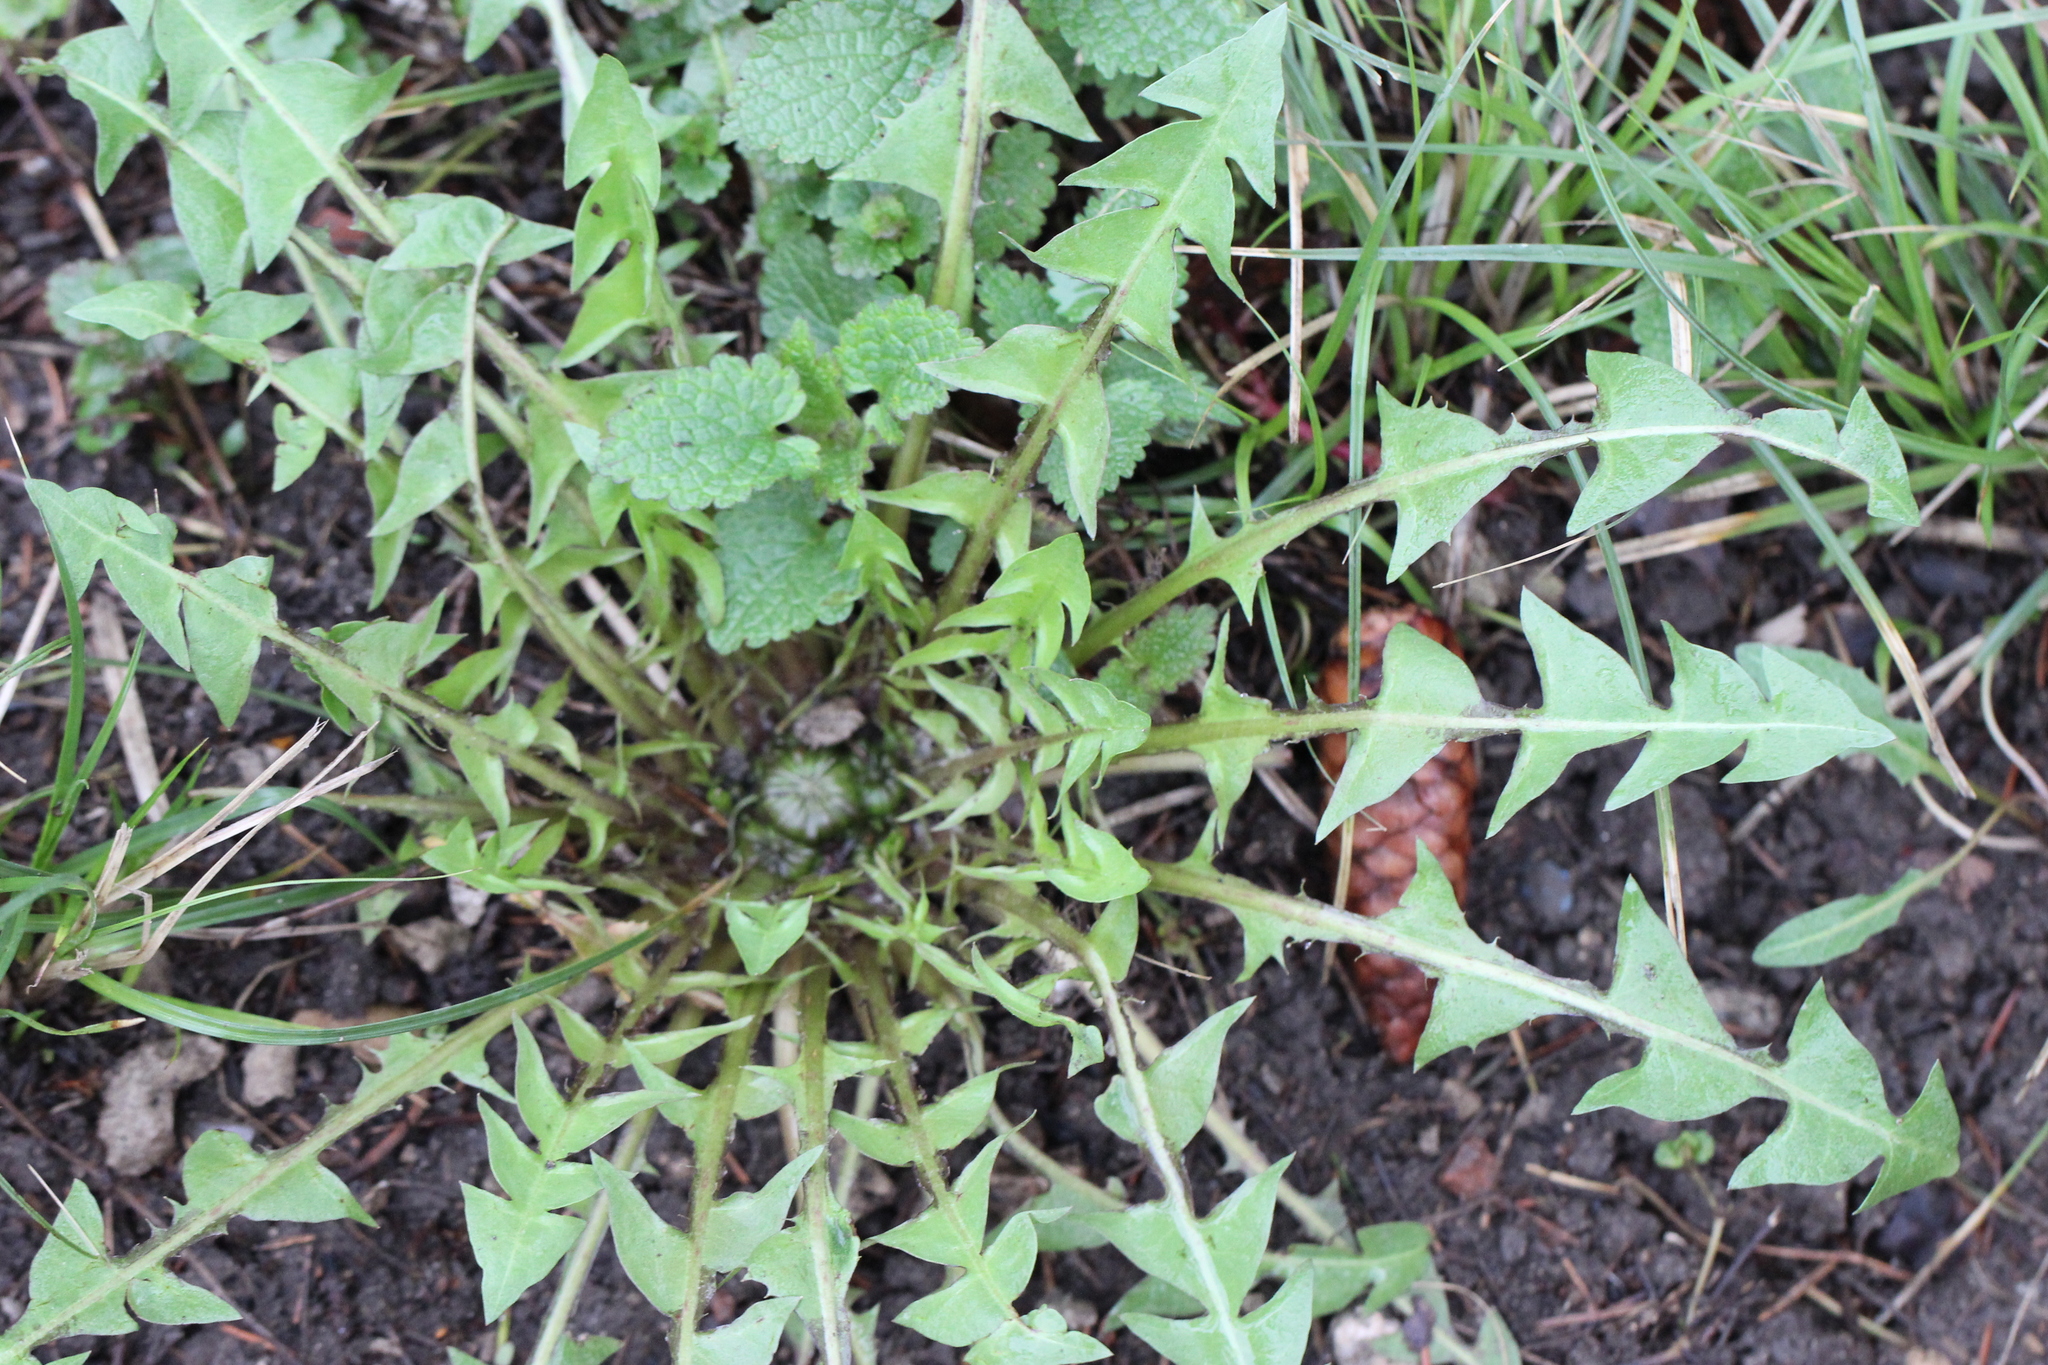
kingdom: Plantae
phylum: Tracheophyta
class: Magnoliopsida
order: Asterales
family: Asteraceae
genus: Taraxacum
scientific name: Taraxacum officinale
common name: Common dandelion
